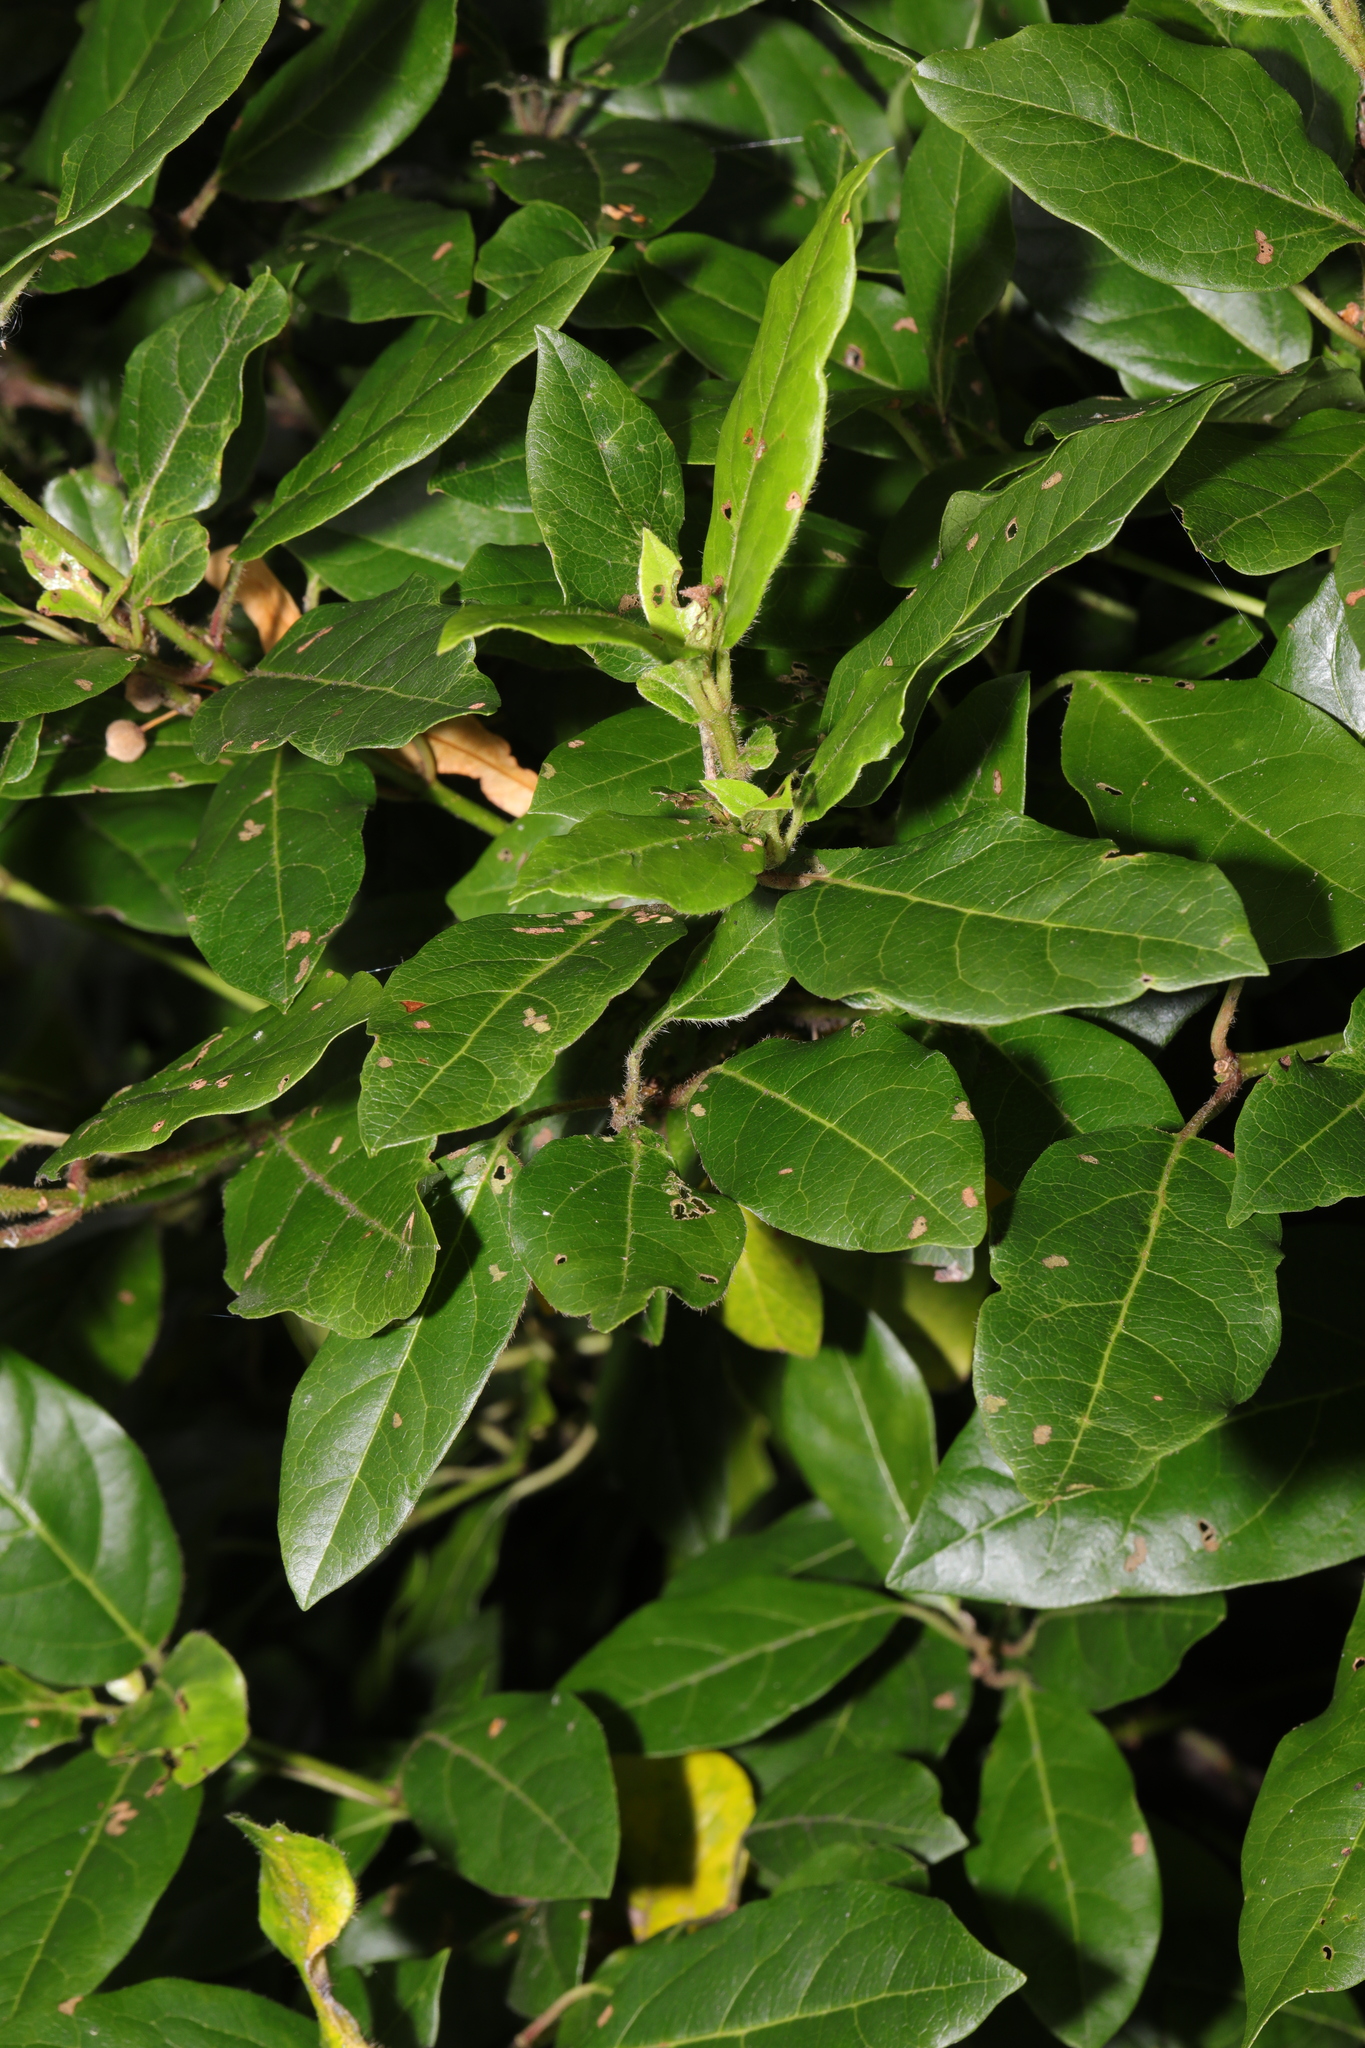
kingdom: Plantae
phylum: Tracheophyta
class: Magnoliopsida
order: Dipsacales
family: Viburnaceae
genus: Viburnum
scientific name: Viburnum tinus
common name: Laurustinus
